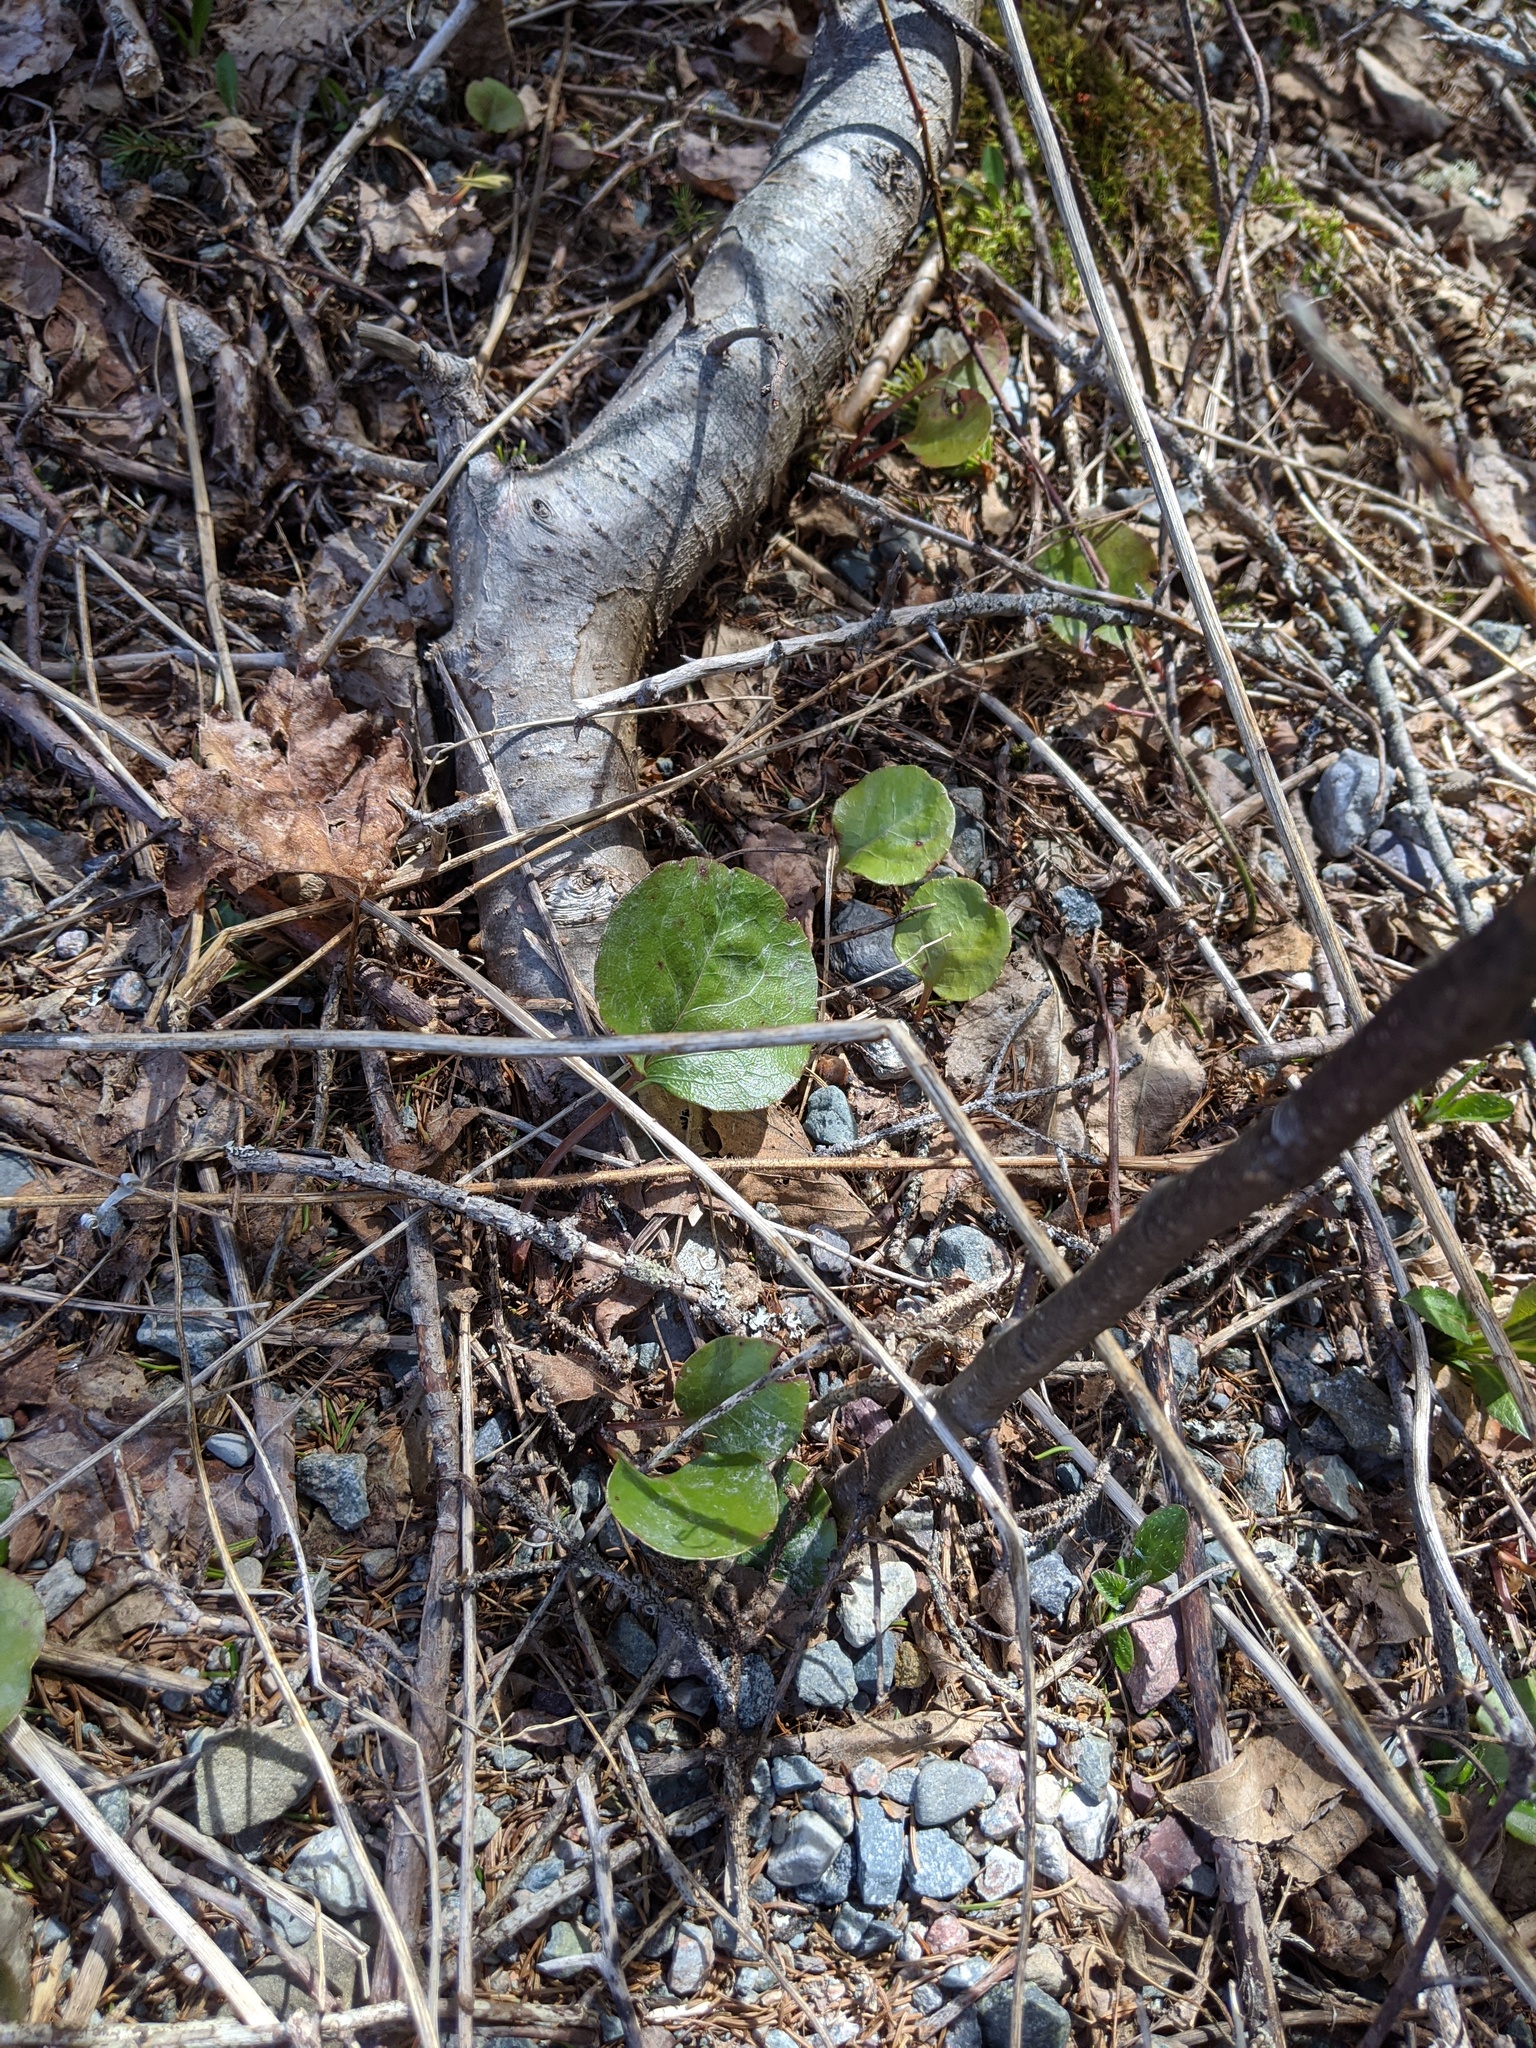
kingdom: Plantae
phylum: Tracheophyta
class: Magnoliopsida
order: Ericales
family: Ericaceae
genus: Pyrola
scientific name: Pyrola americana
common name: American wintergreen
